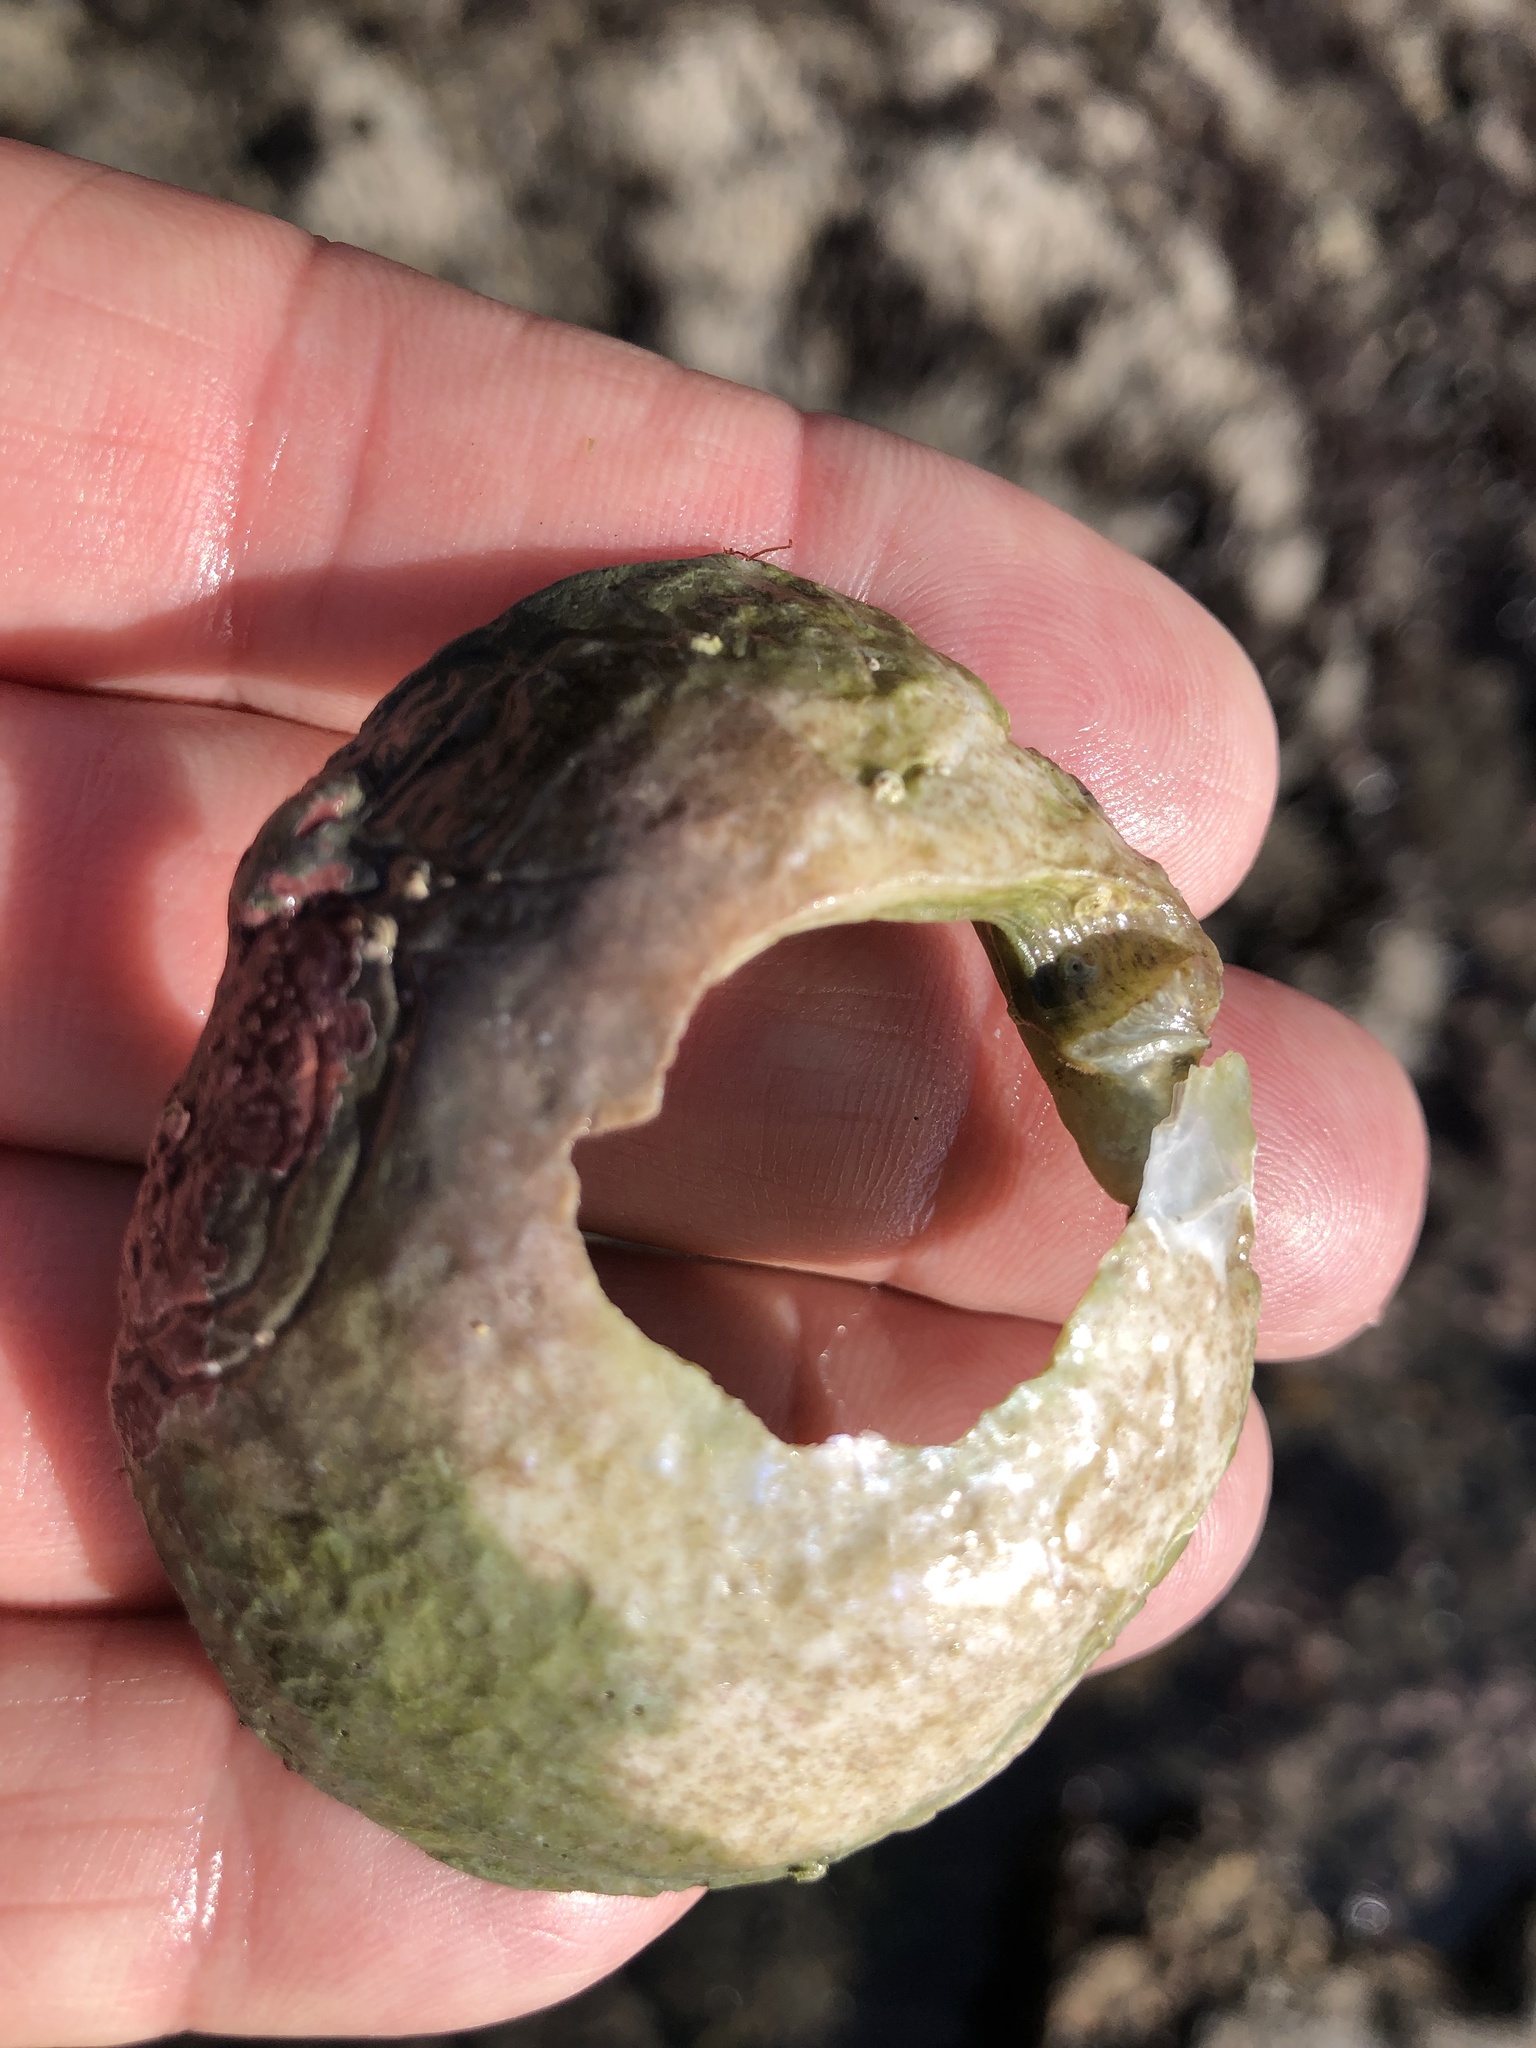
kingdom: Animalia
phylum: Mollusca
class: Bivalvia
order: Pectinida
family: Anomiidae
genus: Pododesmus
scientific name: Pododesmus macrochisma
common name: Alaska jingle
